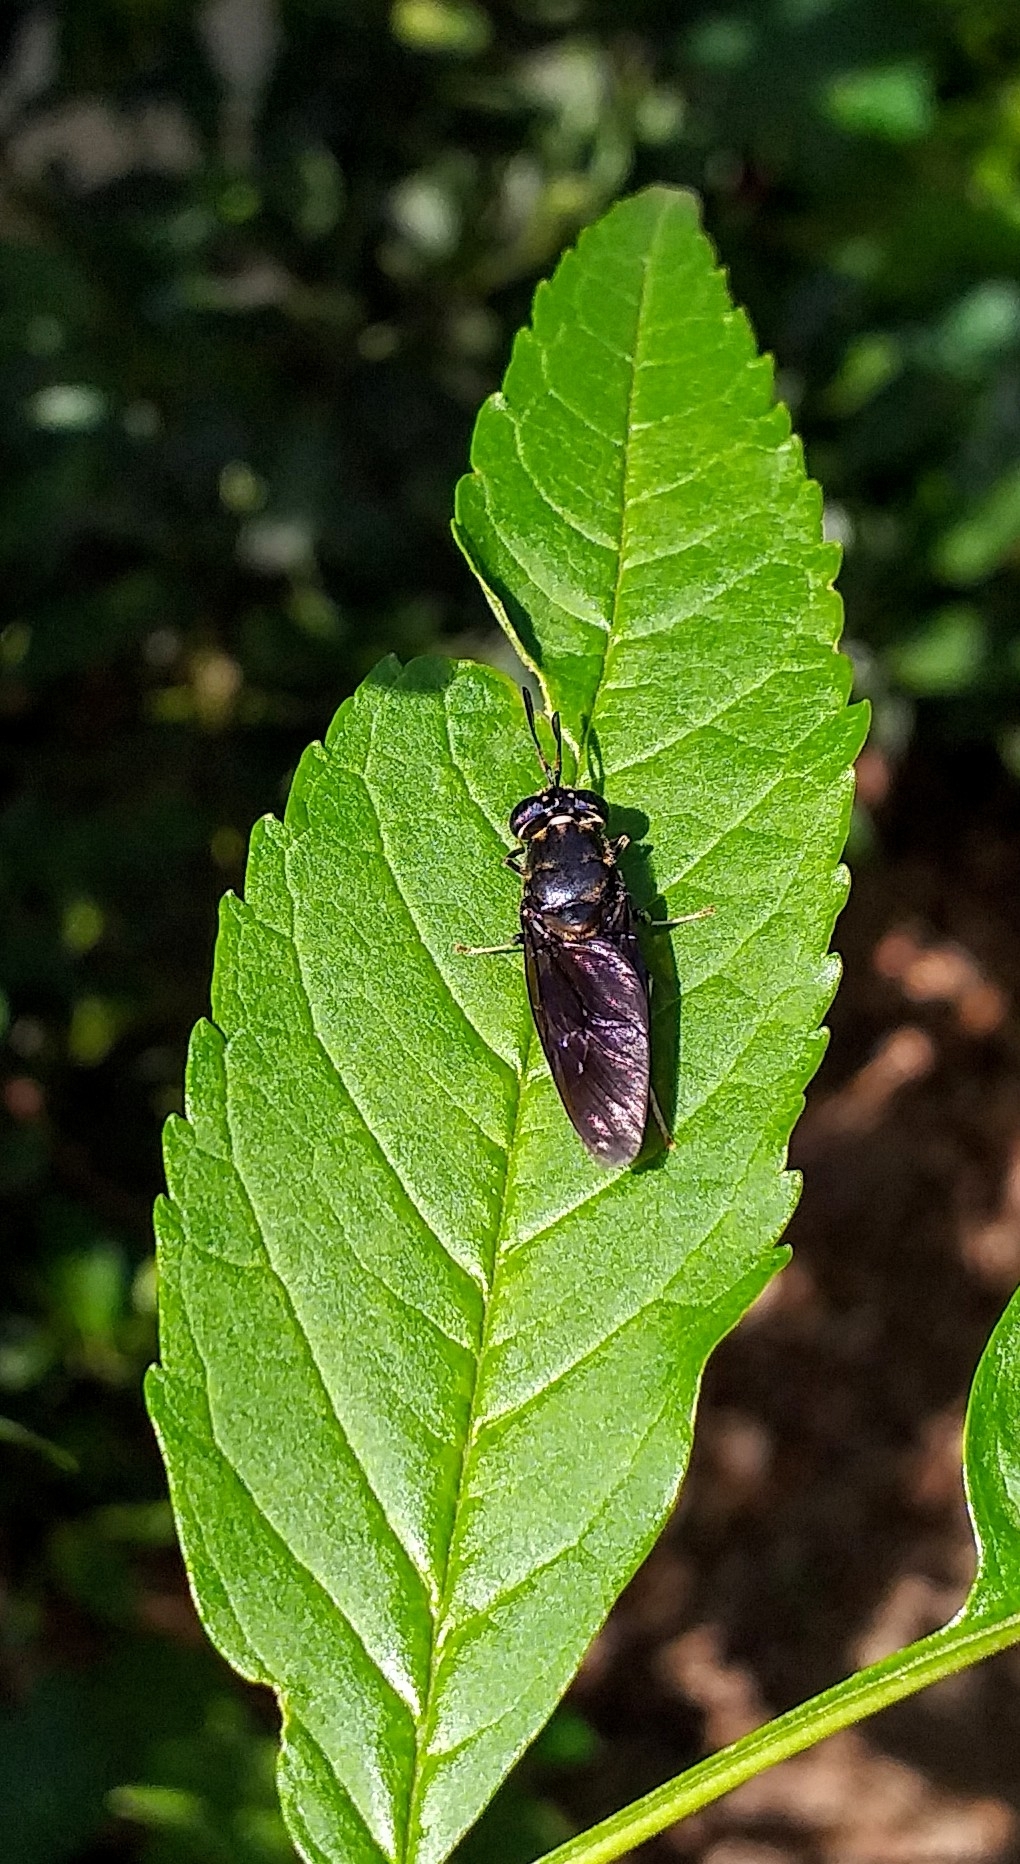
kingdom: Animalia
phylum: Arthropoda
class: Insecta
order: Diptera
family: Stratiomyidae
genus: Hermetia
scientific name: Hermetia illucens
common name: Black soldier fly
